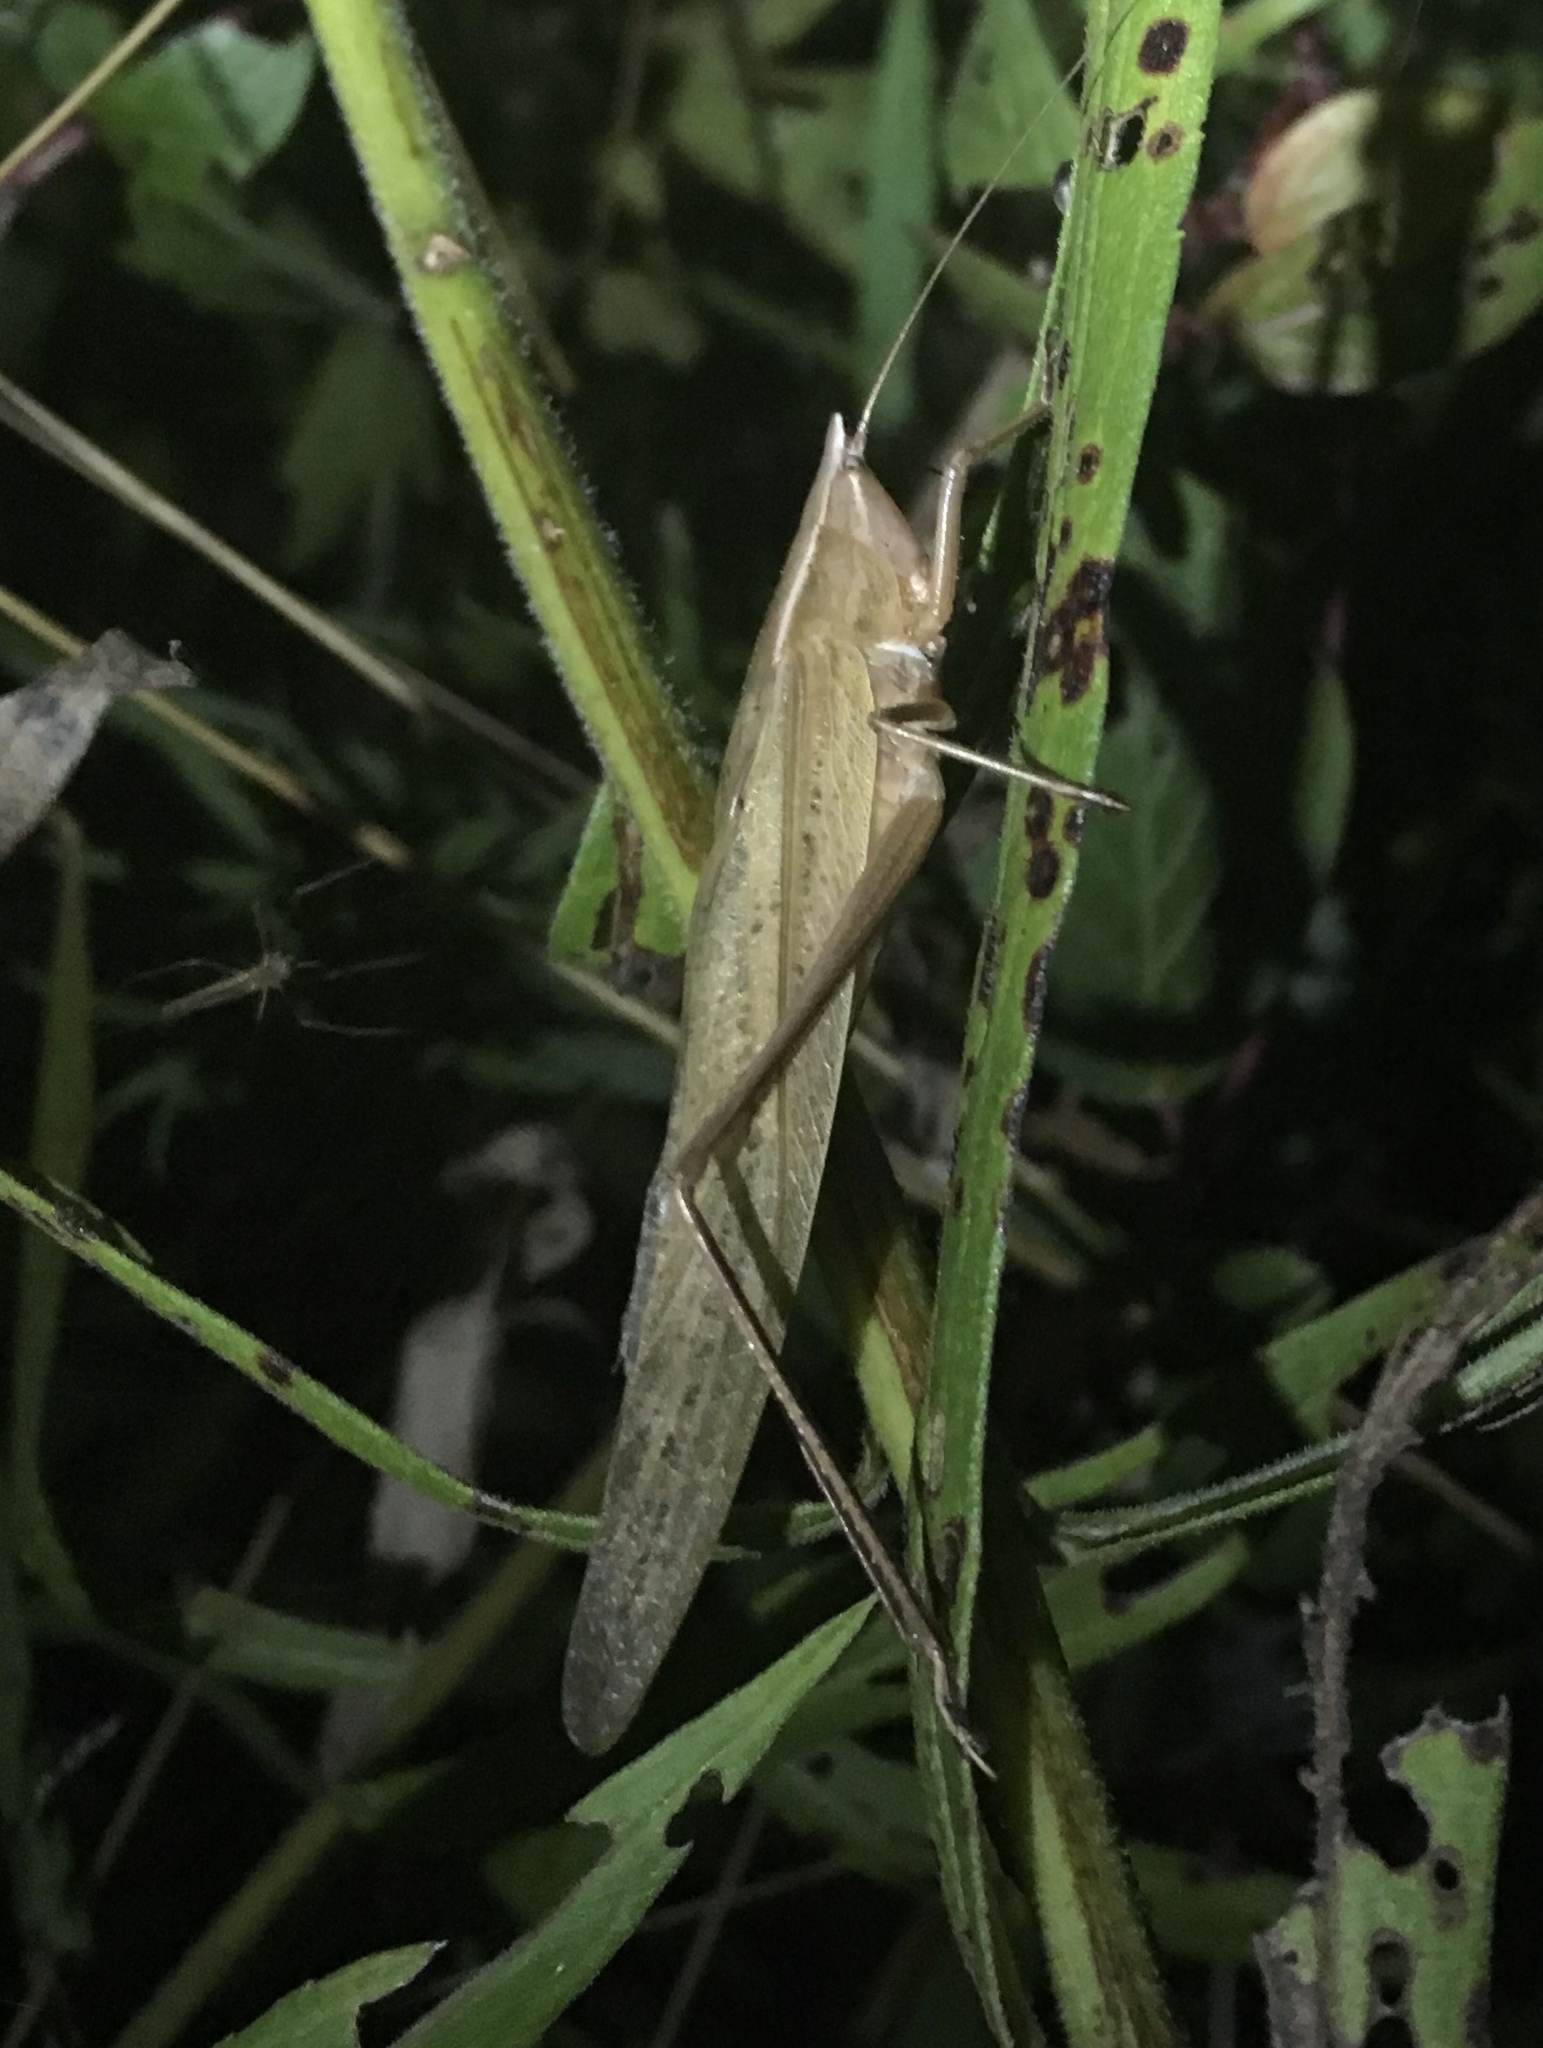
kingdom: Animalia
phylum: Arthropoda
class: Insecta
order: Orthoptera
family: Tettigoniidae
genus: Neoconocephalus
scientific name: Neoconocephalus ensiger
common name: Swordbearer
